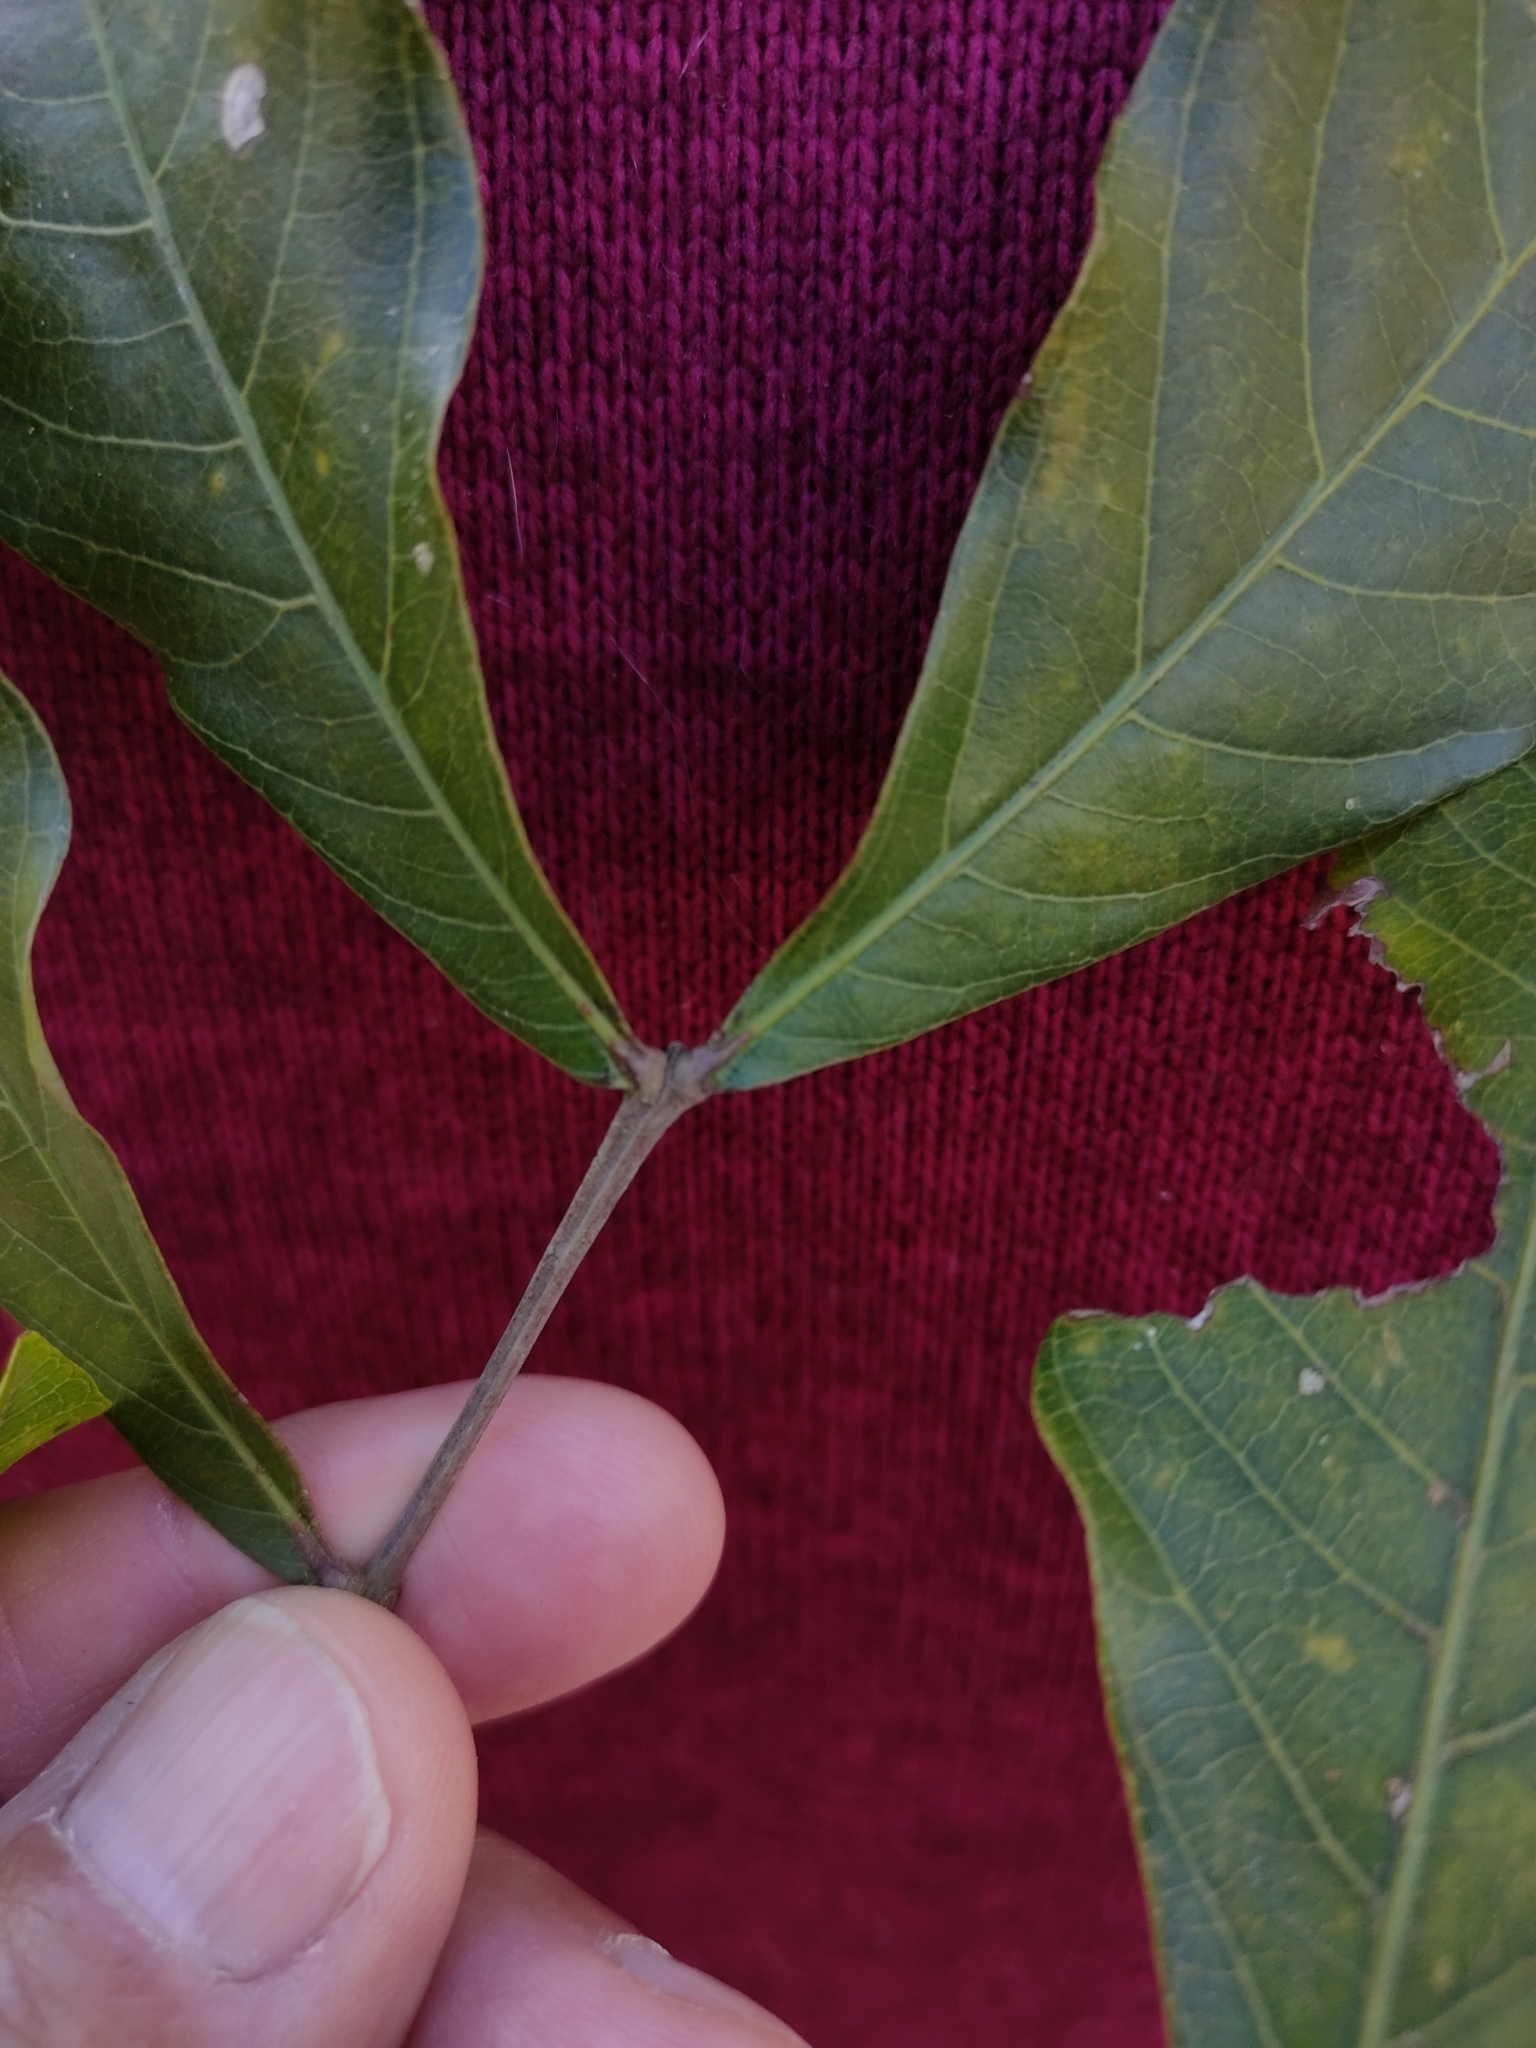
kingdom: Plantae
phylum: Tracheophyta
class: Magnoliopsida
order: Sapindales
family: Sapindaceae
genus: Alectryon
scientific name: Alectryon connatus
